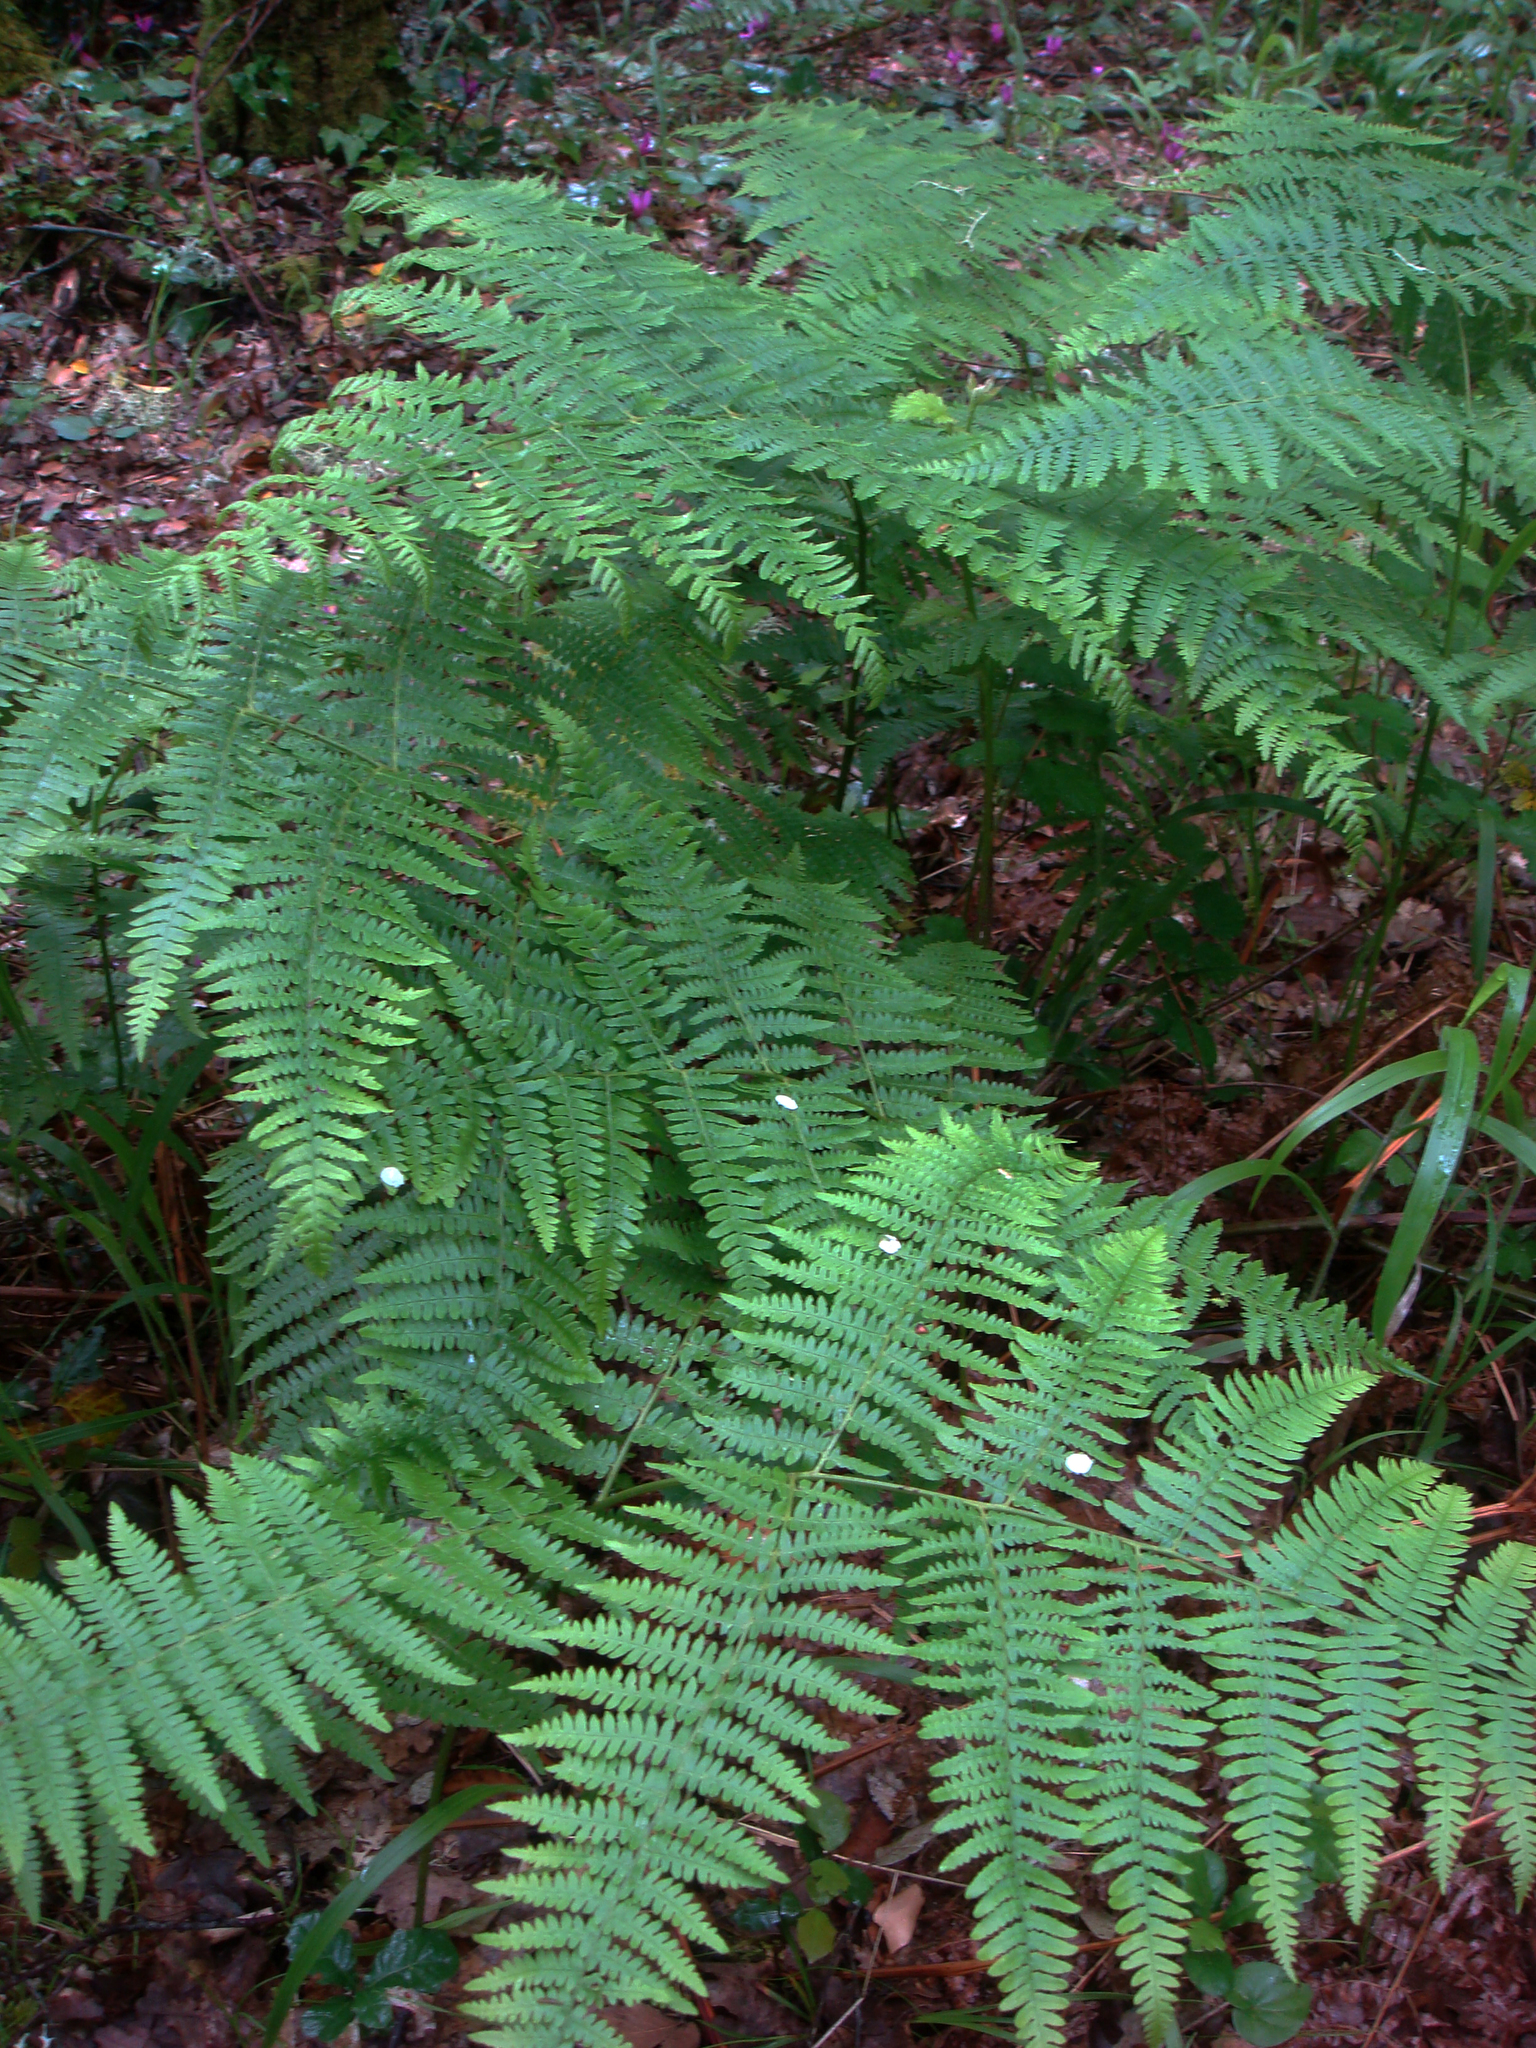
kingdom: Plantae
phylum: Tracheophyta
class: Polypodiopsida
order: Polypodiales
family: Dennstaedtiaceae
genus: Pteridium
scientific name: Pteridium aquilinum
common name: Bracken
